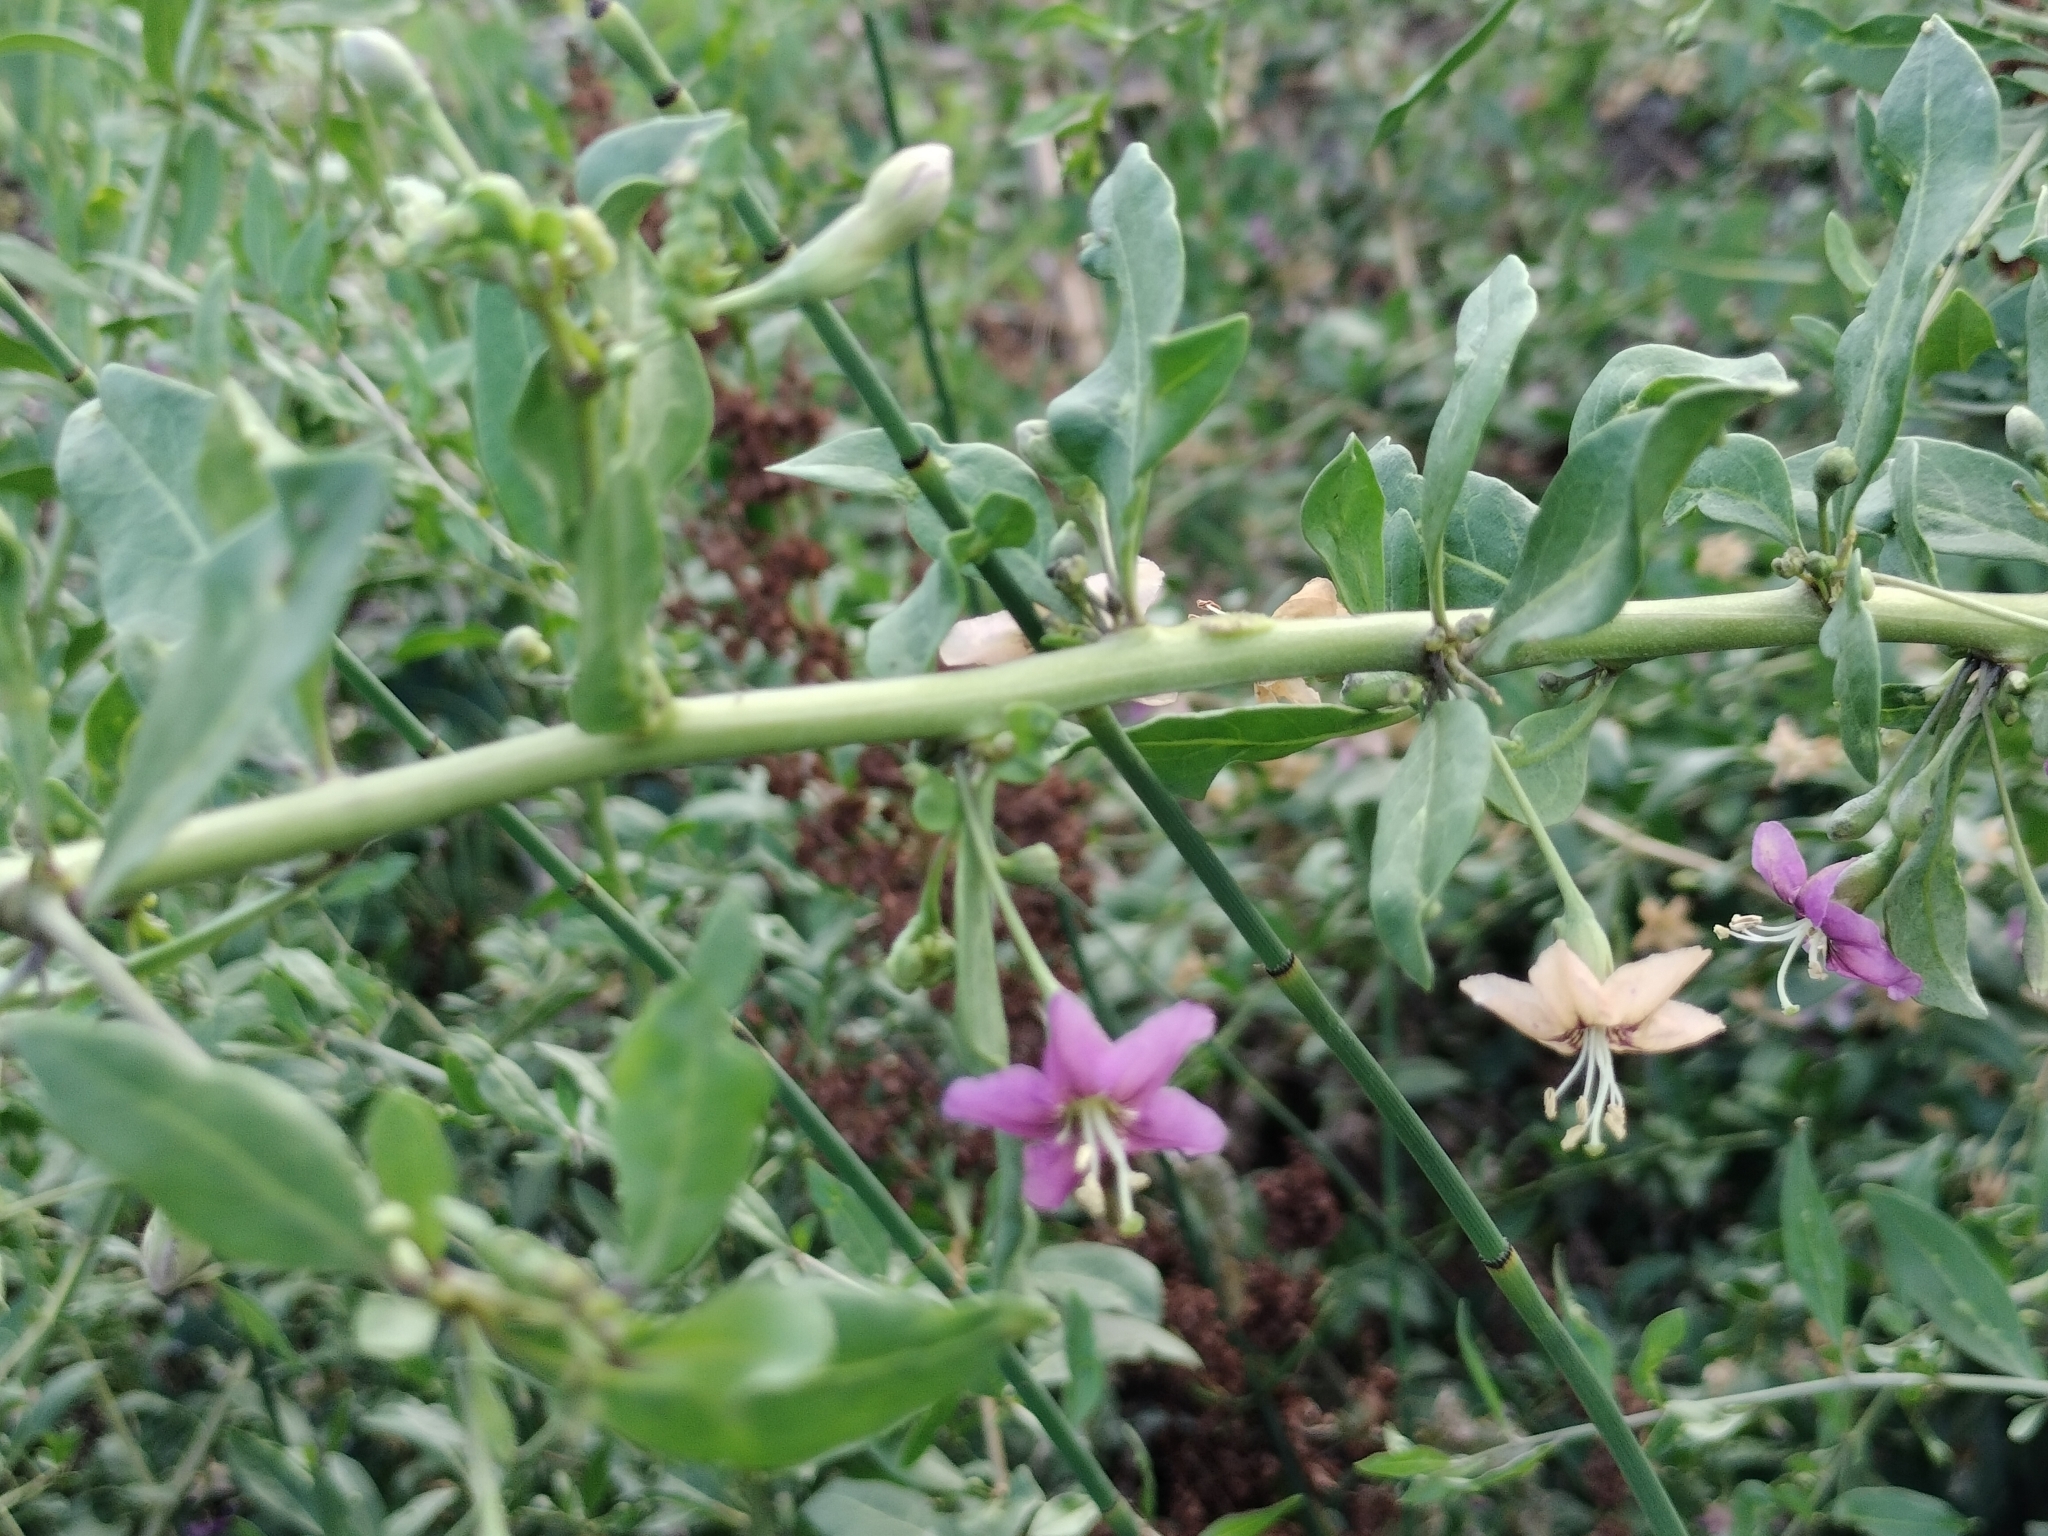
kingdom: Plantae
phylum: Tracheophyta
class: Magnoliopsida
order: Solanales
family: Solanaceae
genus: Lycium
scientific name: Lycium barbarum
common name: Duke of argyll's teaplant
